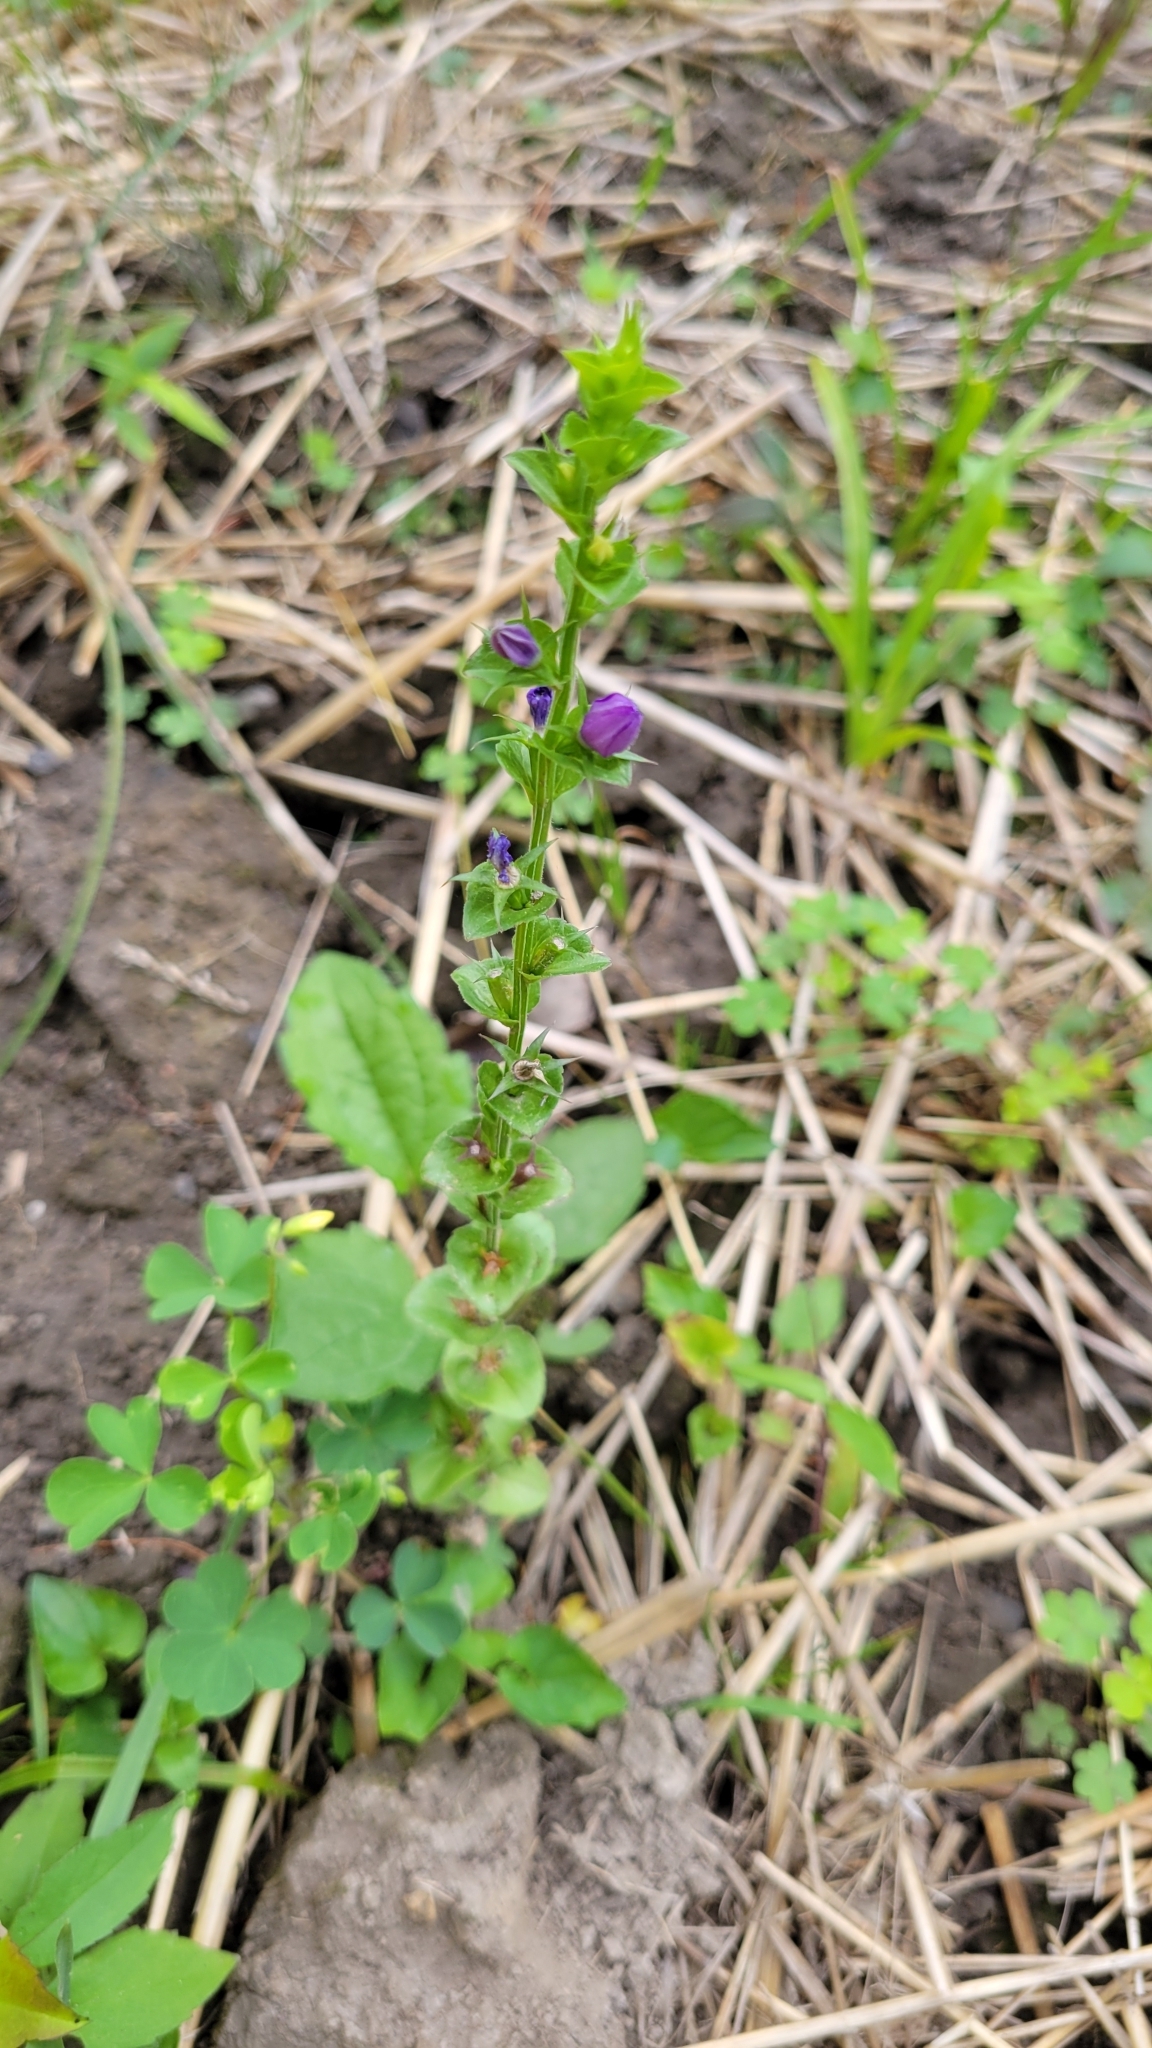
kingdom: Plantae
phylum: Tracheophyta
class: Magnoliopsida
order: Asterales
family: Campanulaceae
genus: Triodanis
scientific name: Triodanis perfoliata
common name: Clasping venus' looking-glass
